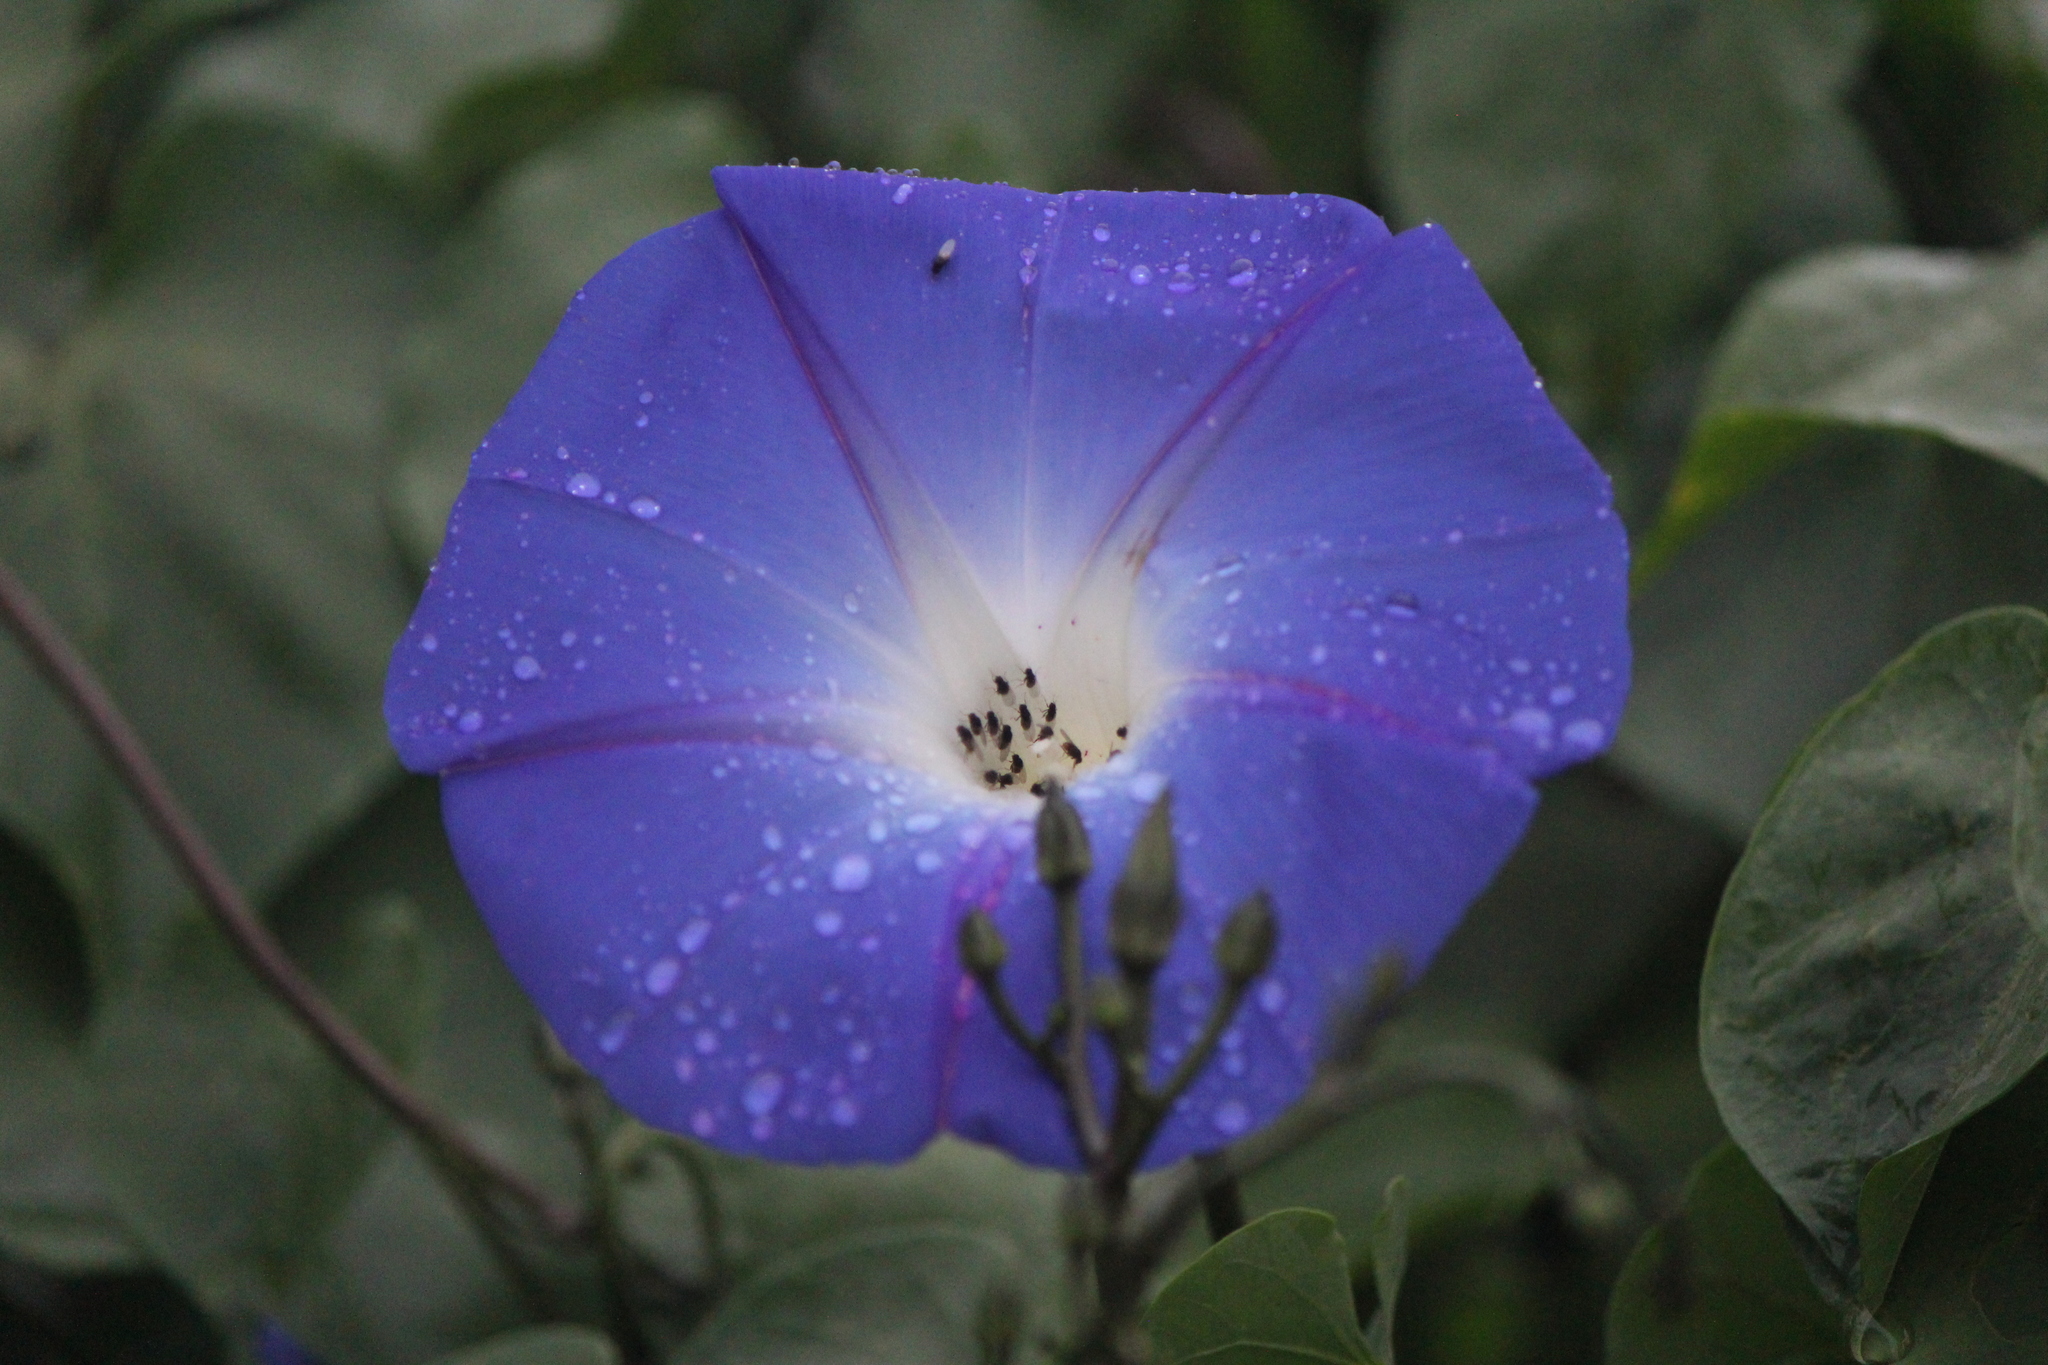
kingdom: Plantae
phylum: Tracheophyta
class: Magnoliopsida
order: Solanales
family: Convolvulaceae
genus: Ipomoea
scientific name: Ipomoea tricolor
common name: Morning-glory
